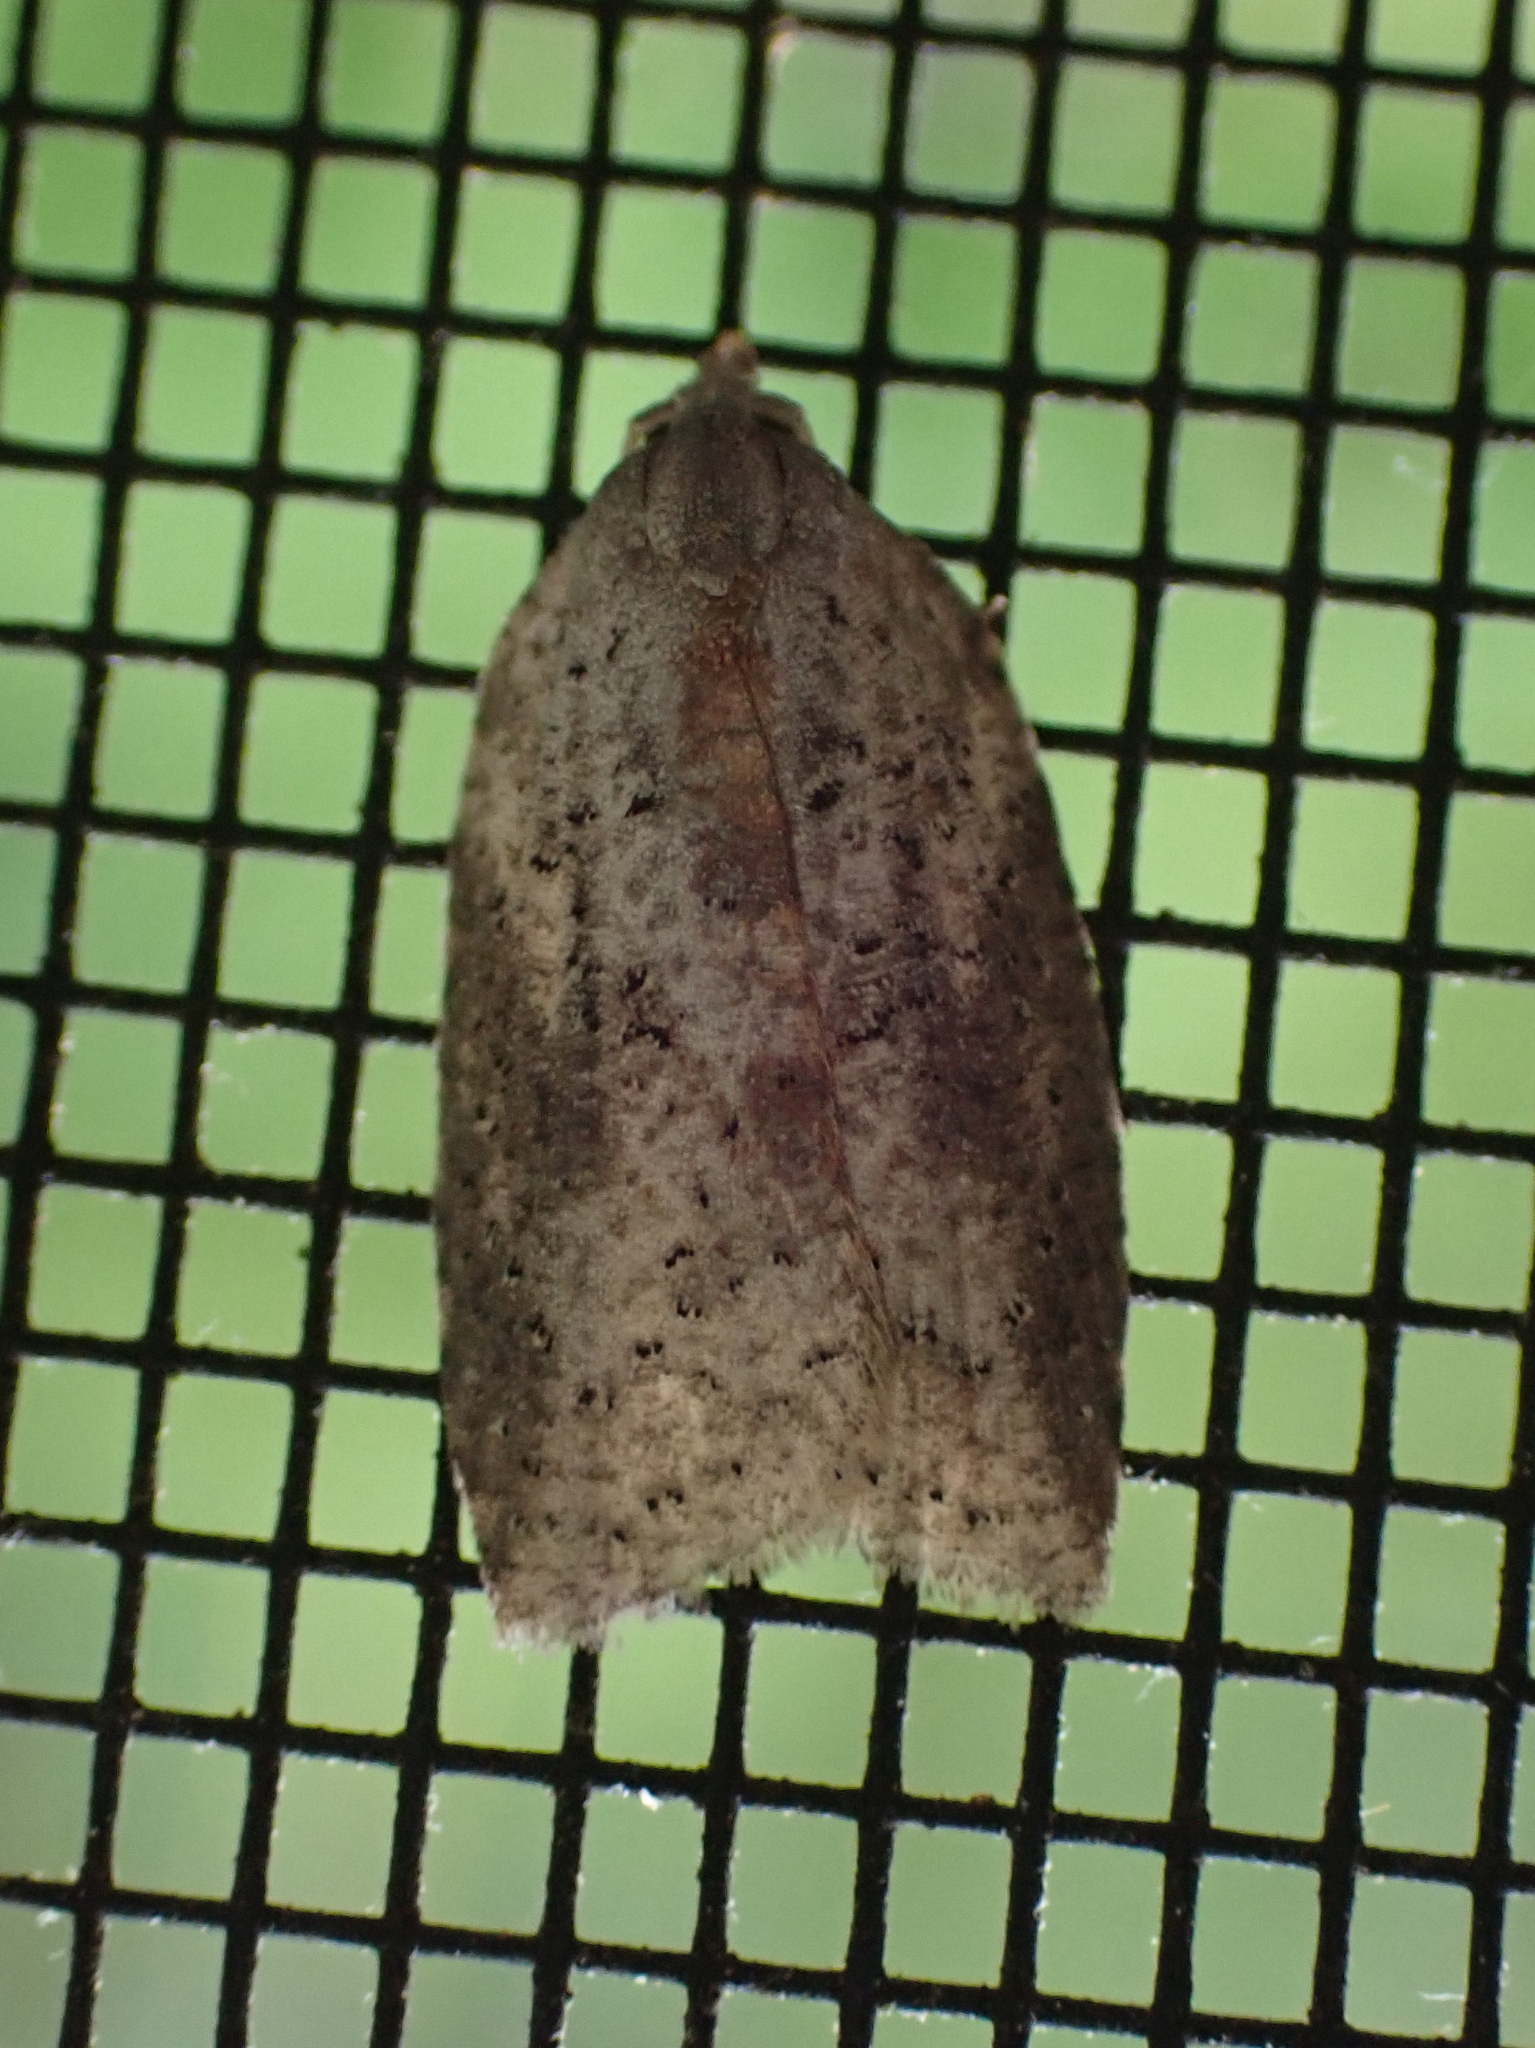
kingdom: Animalia
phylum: Arthropoda
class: Insecta
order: Lepidoptera
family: Tortricidae
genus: Amorbia
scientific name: Amorbia humerosana
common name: White-lined leafroller moth
